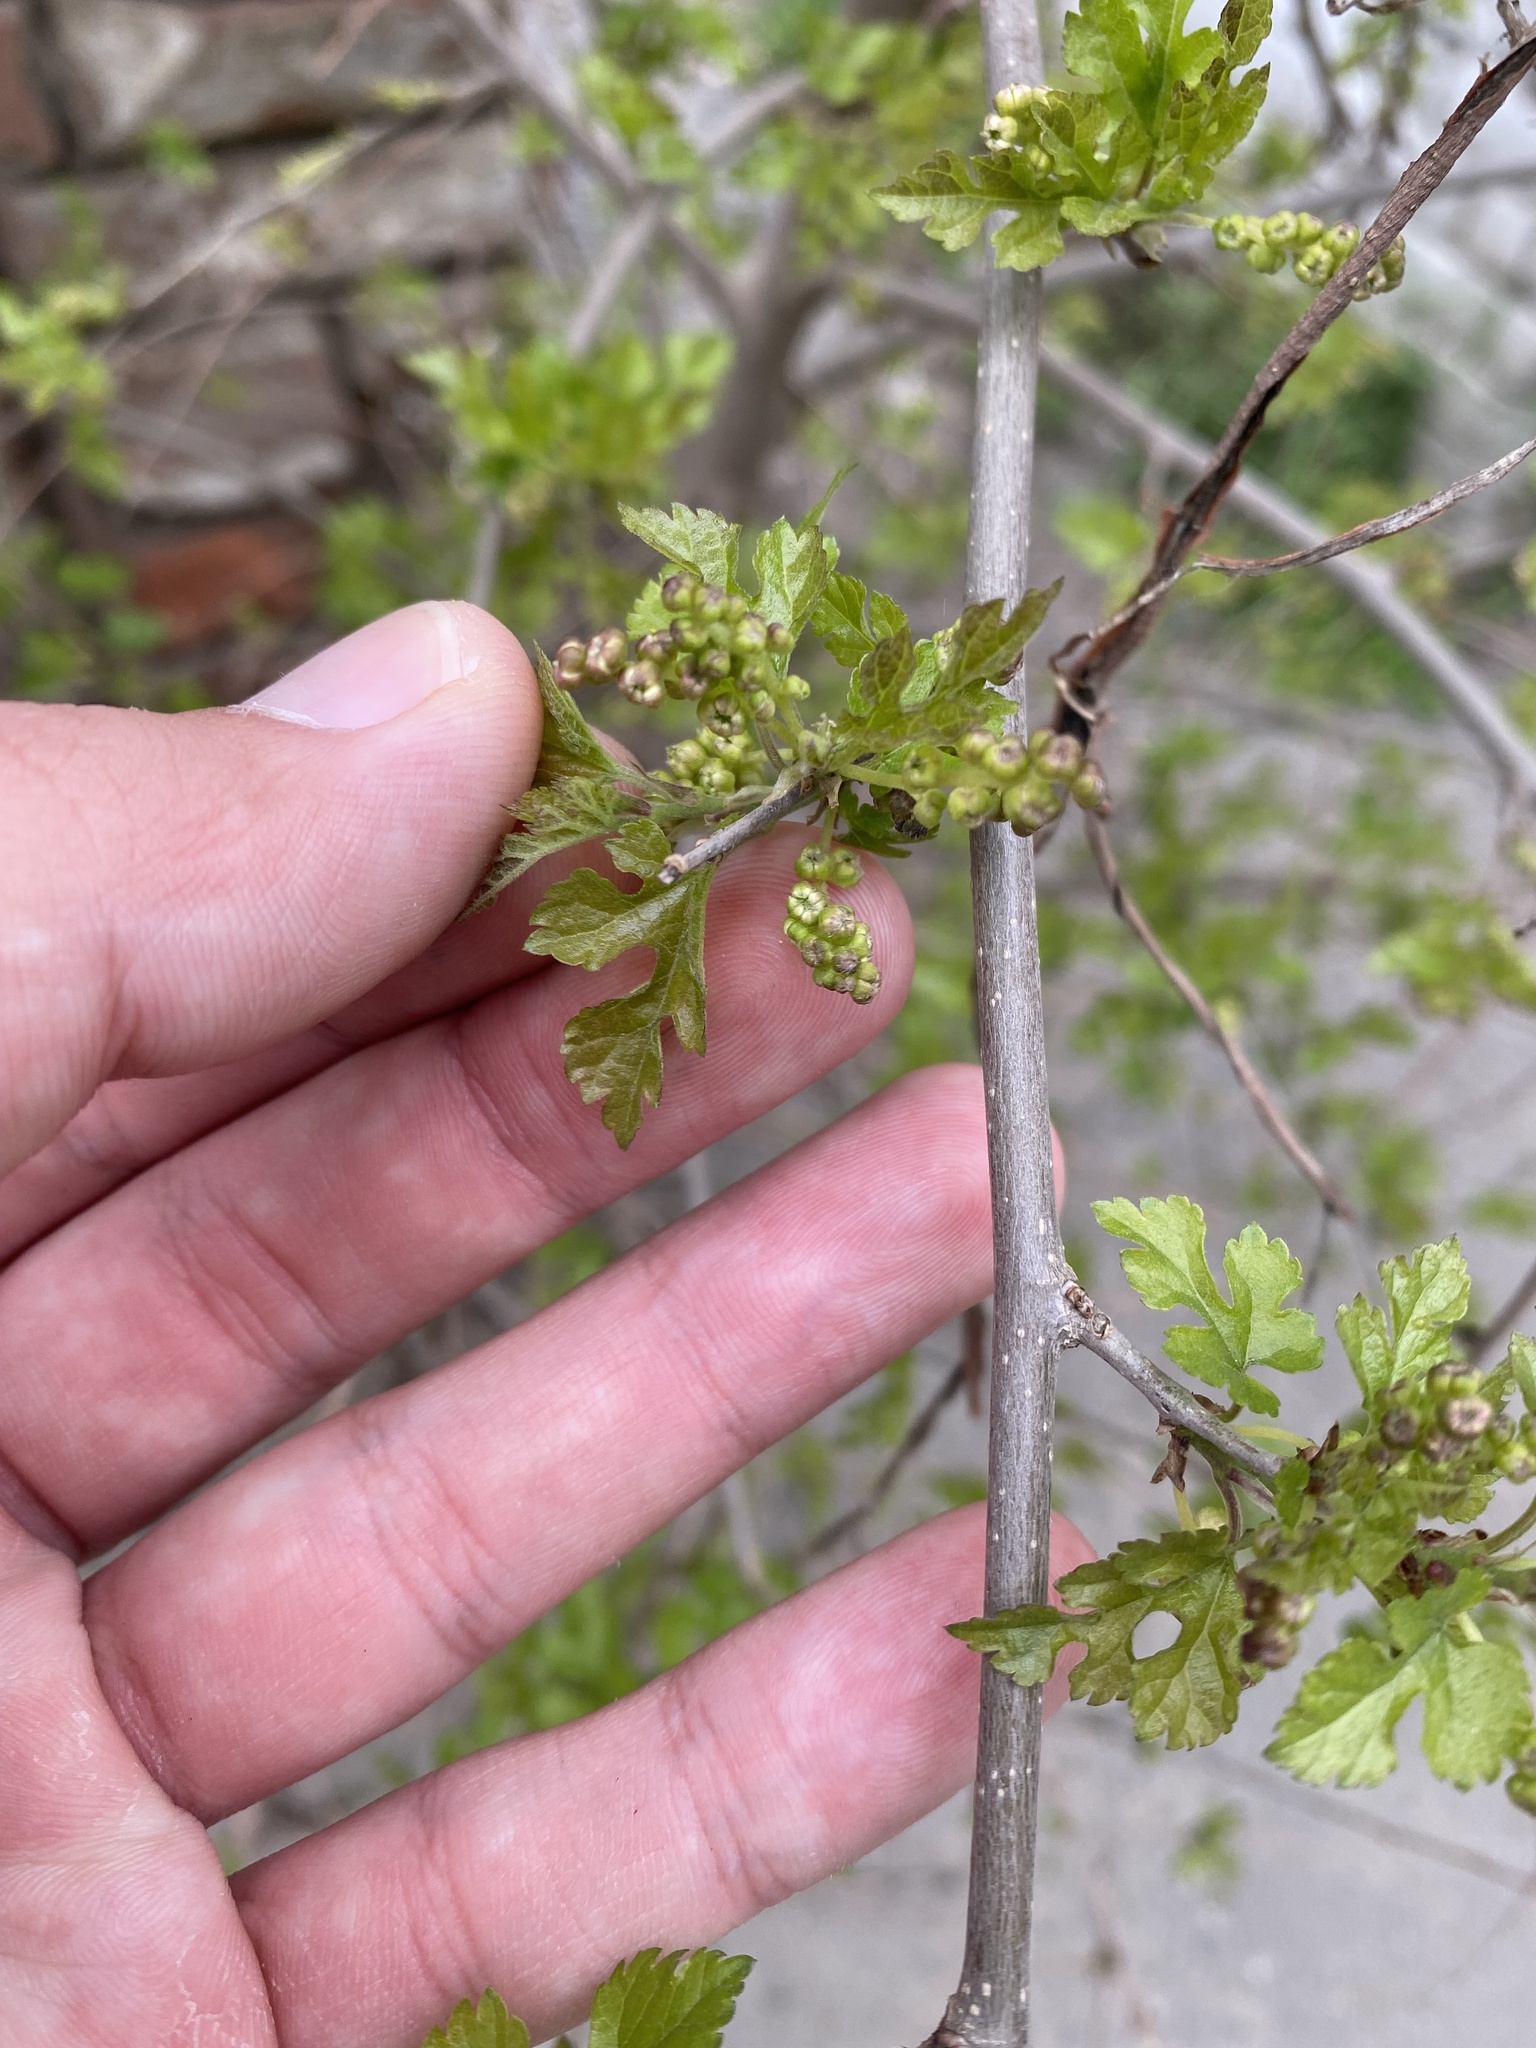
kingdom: Plantae
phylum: Tracheophyta
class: Magnoliopsida
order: Rosales
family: Moraceae
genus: Morus
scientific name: Morus alba
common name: White mulberry
